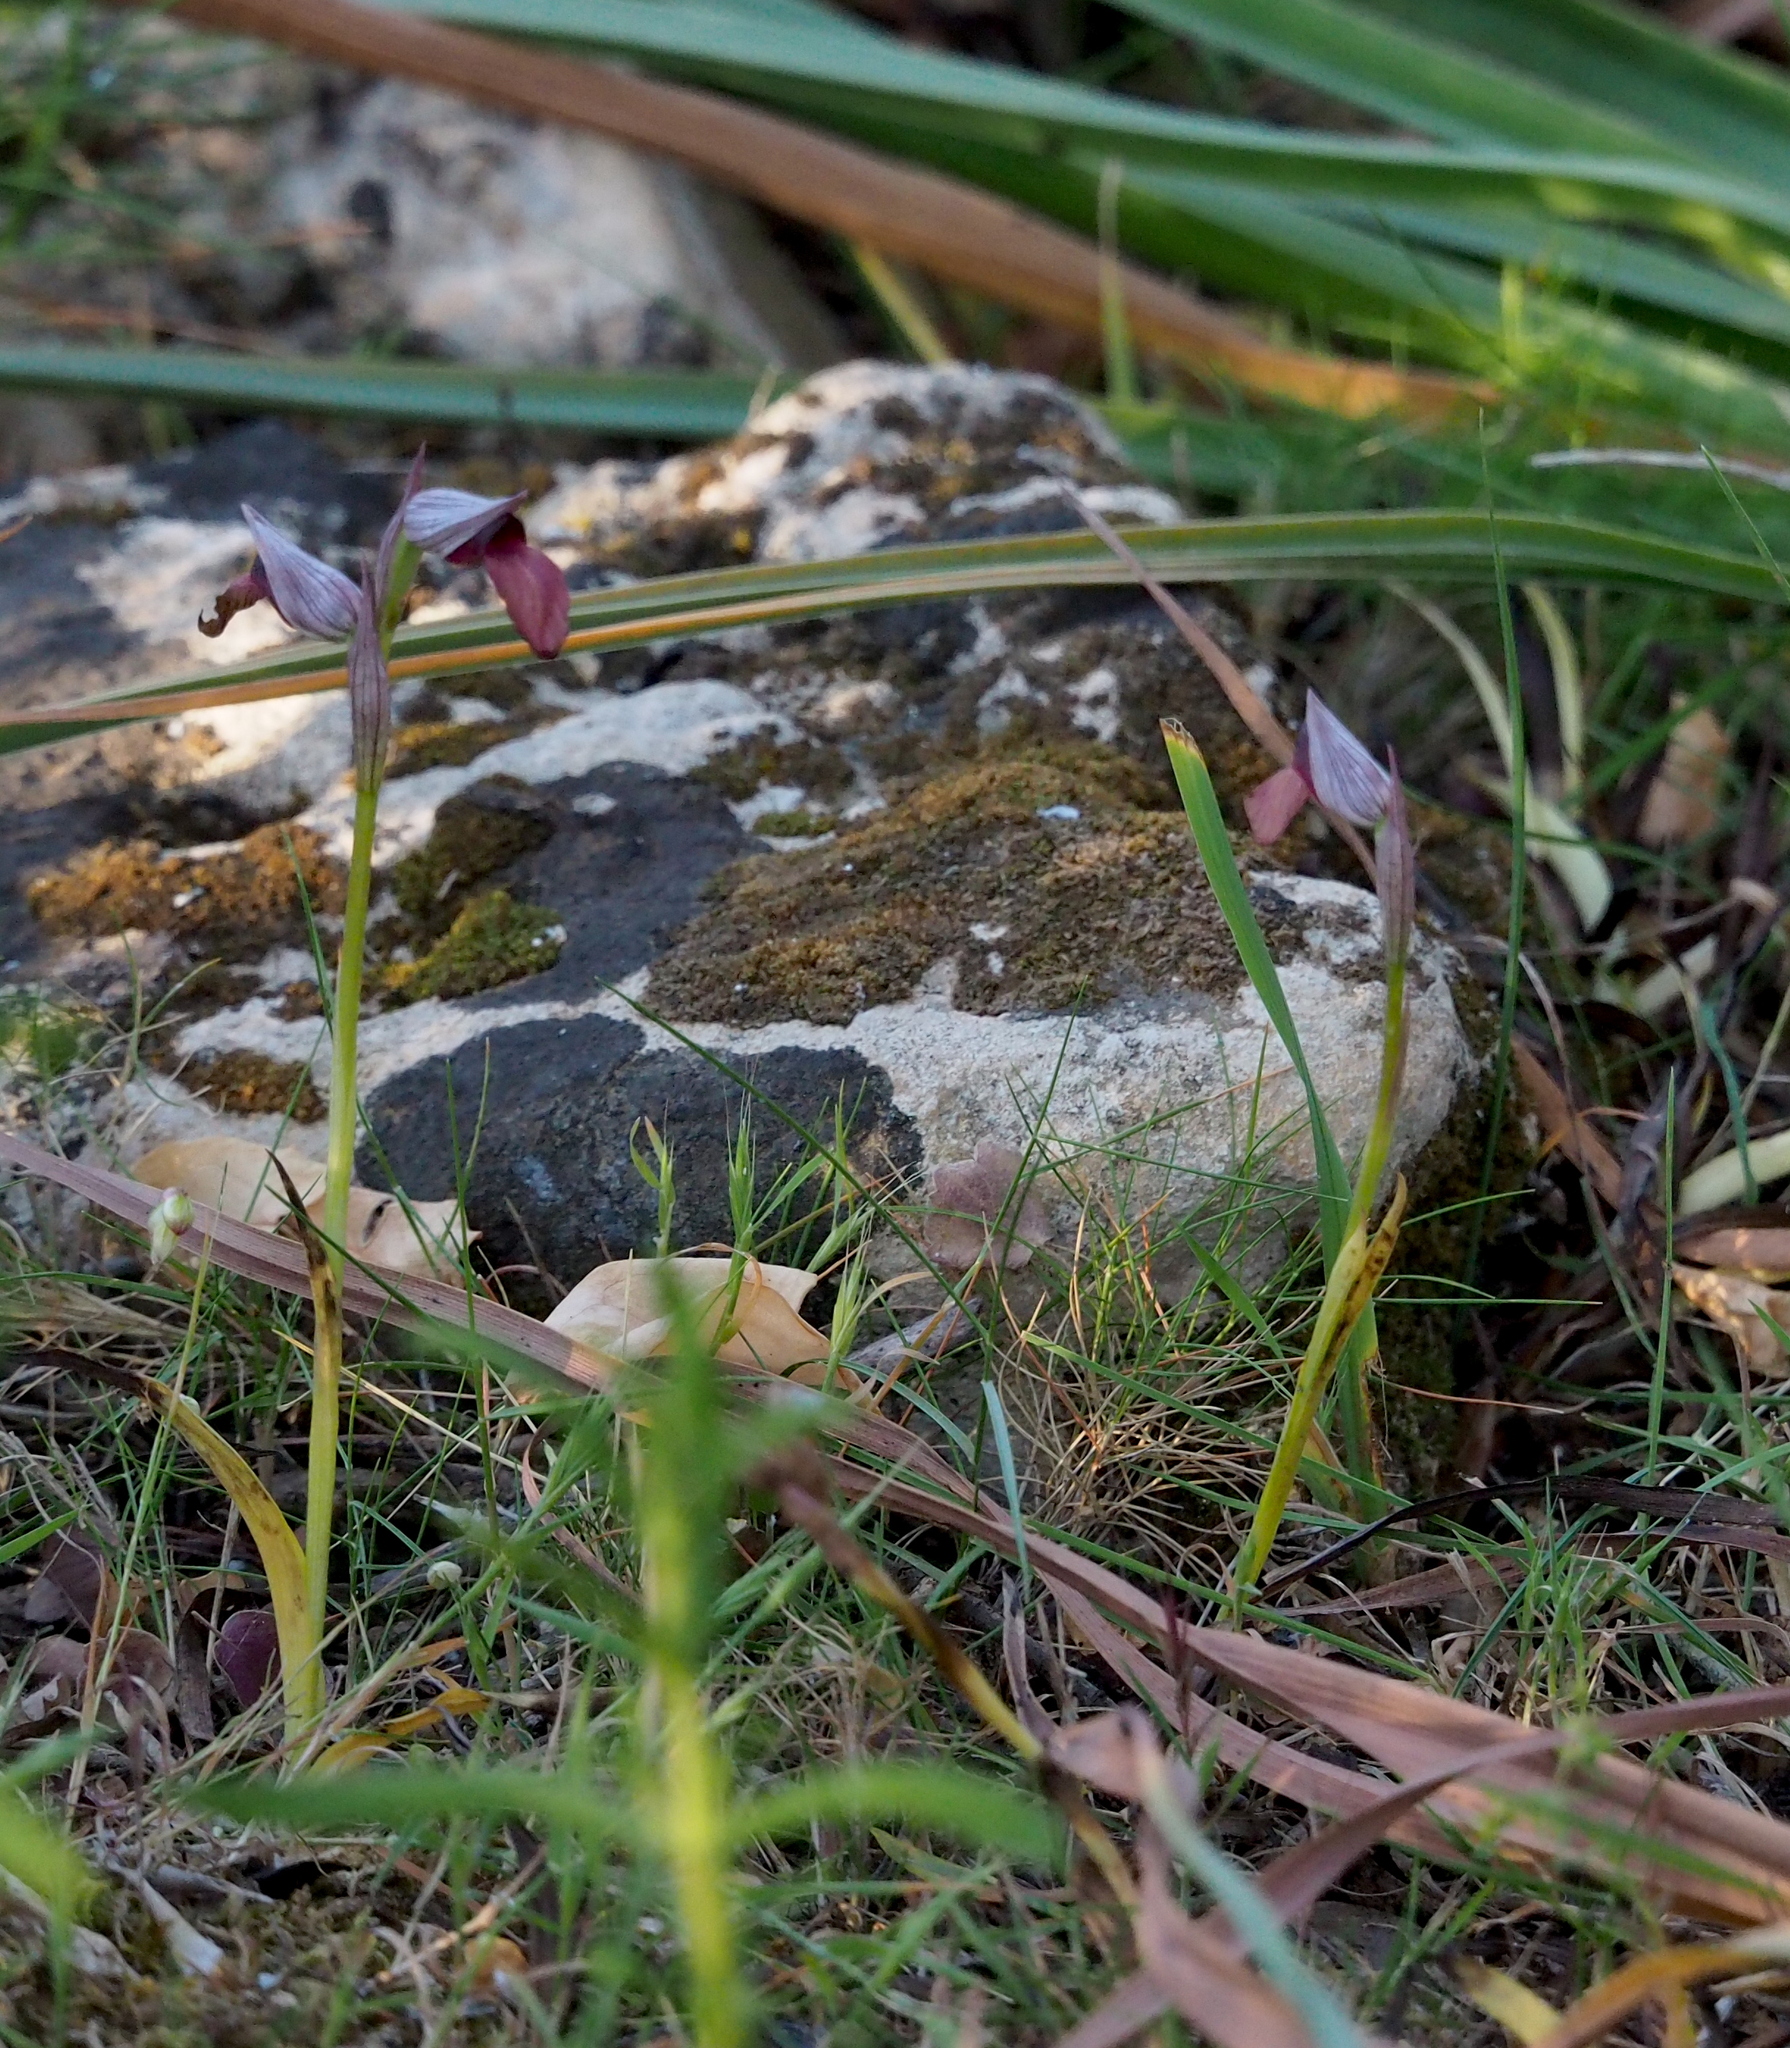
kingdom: Plantae
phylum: Tracheophyta
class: Liliopsida
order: Asparagales
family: Orchidaceae
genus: Serapias
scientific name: Serapias lingua
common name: Tongue-orchid
